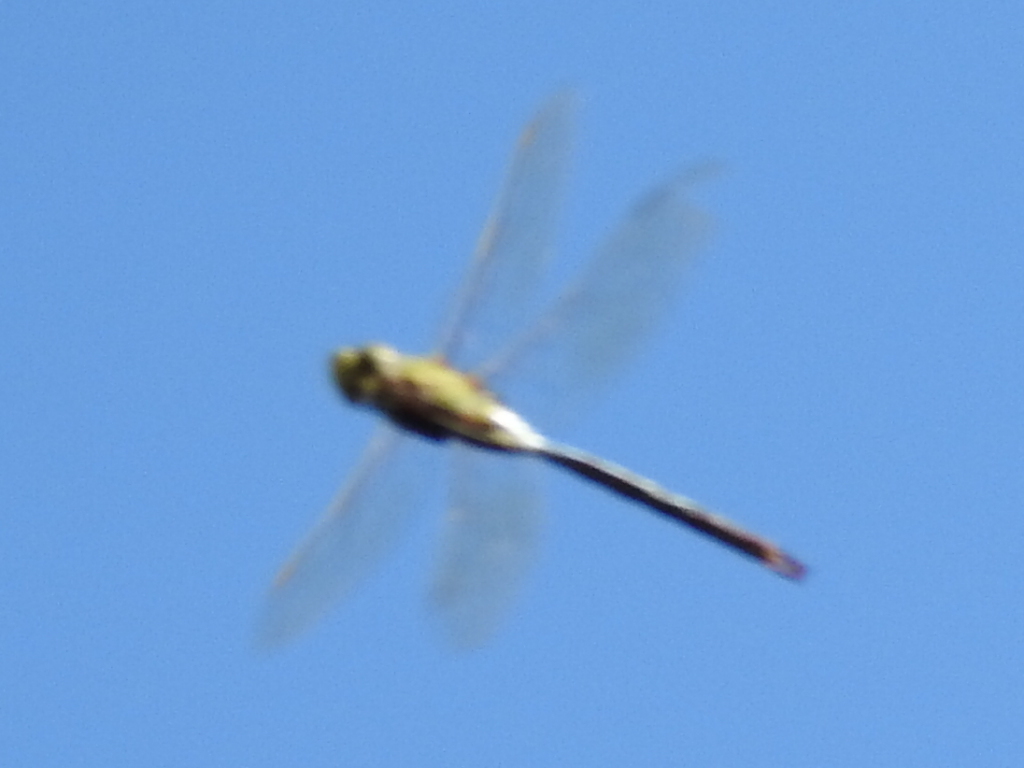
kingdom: Animalia
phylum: Arthropoda
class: Insecta
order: Odonata
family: Aeshnidae
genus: Anax
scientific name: Anax junius
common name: Common green darner
